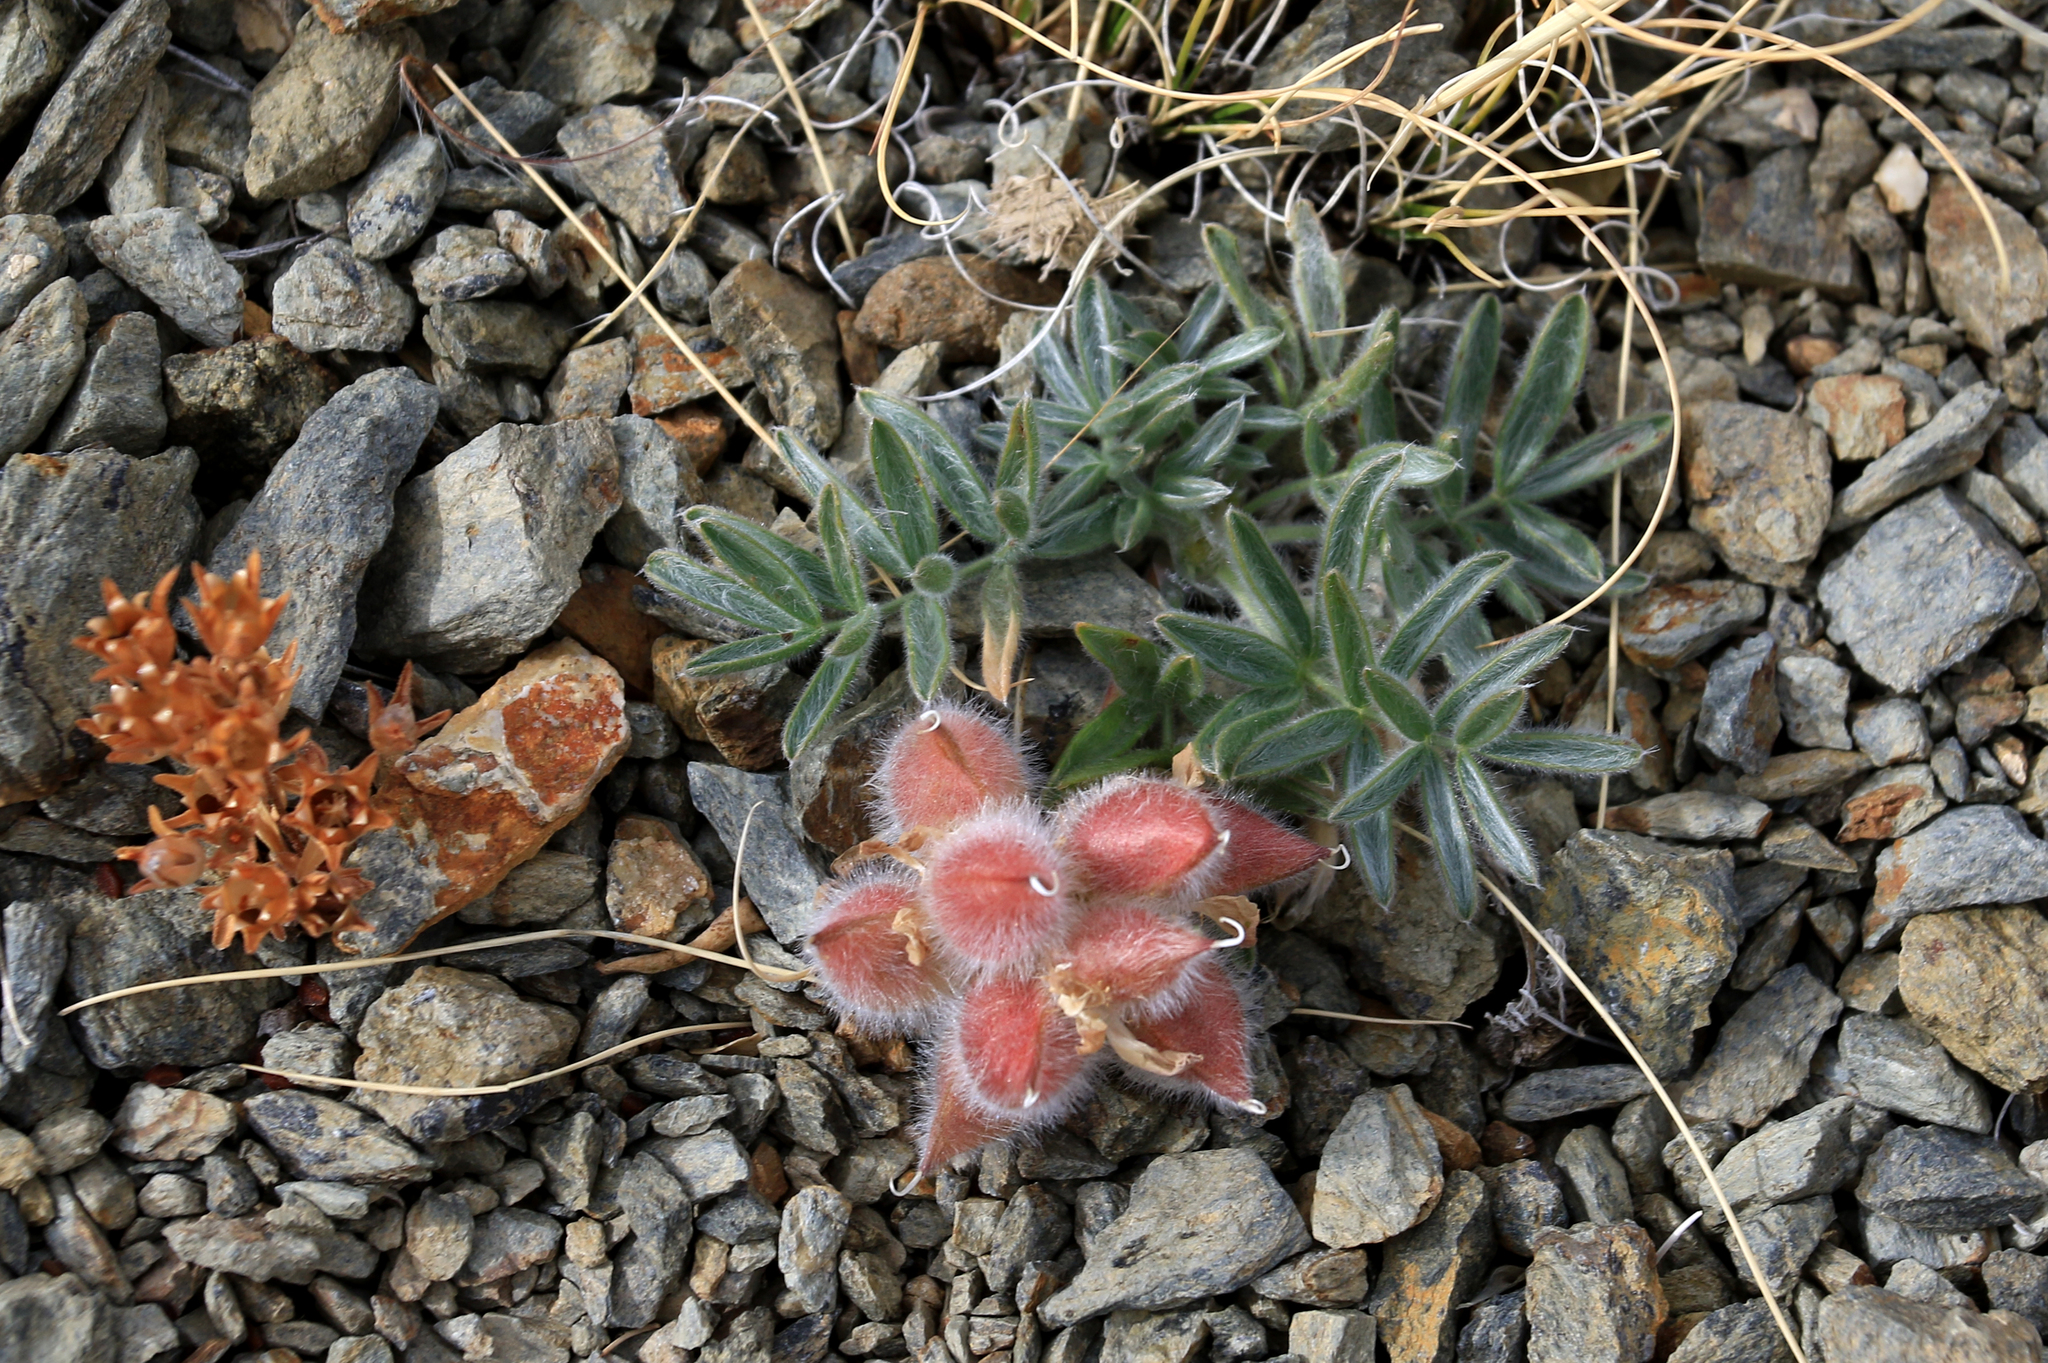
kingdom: Plantae
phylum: Tracheophyta
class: Magnoliopsida
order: Fabales
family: Fabaceae
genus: Oxytropis
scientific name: Oxytropis pumila
